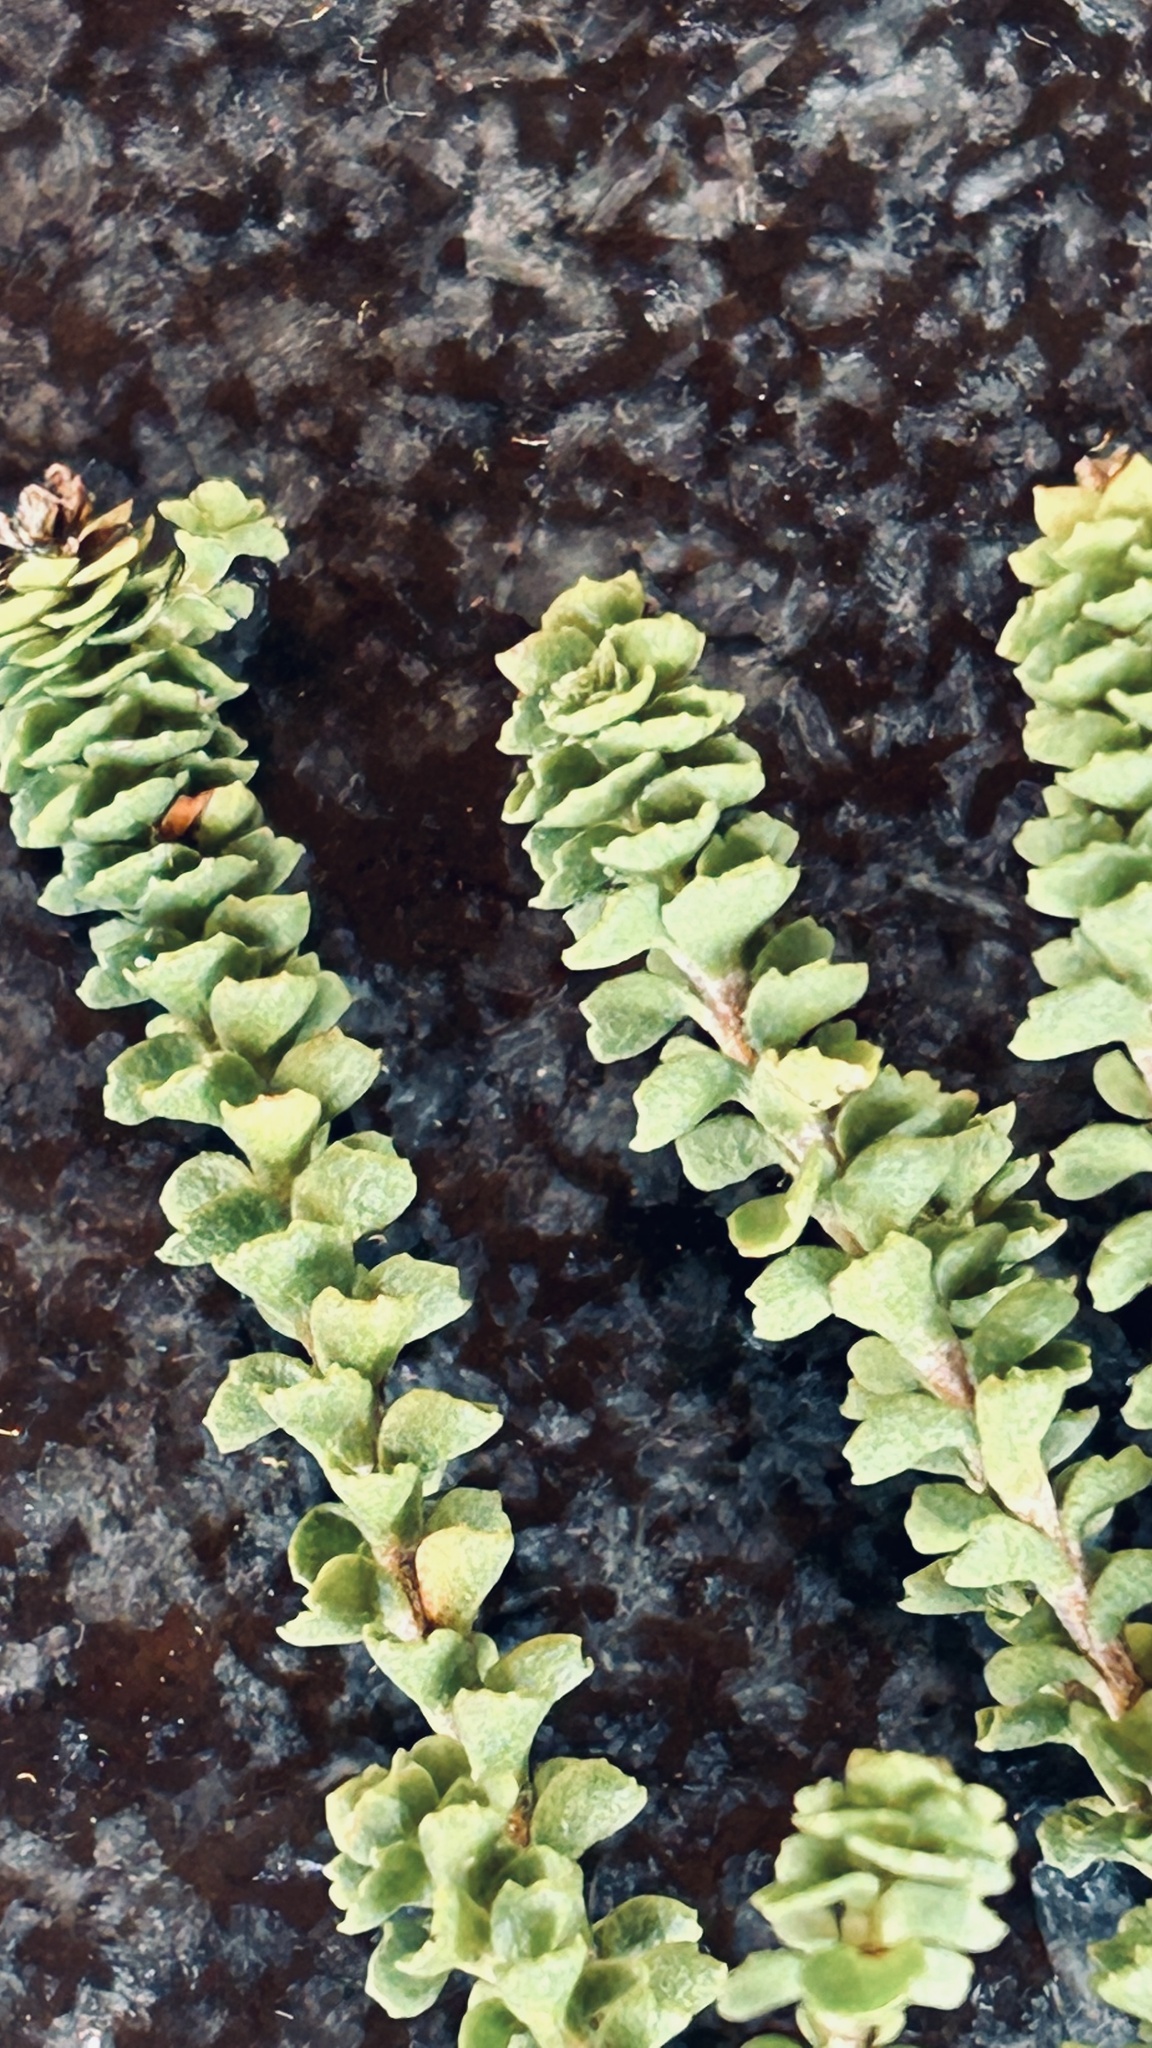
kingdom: Plantae
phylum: Tracheophyta
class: Magnoliopsida
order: Asterales
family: Asteraceae
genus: Athanasia
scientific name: Athanasia quinquedentata
